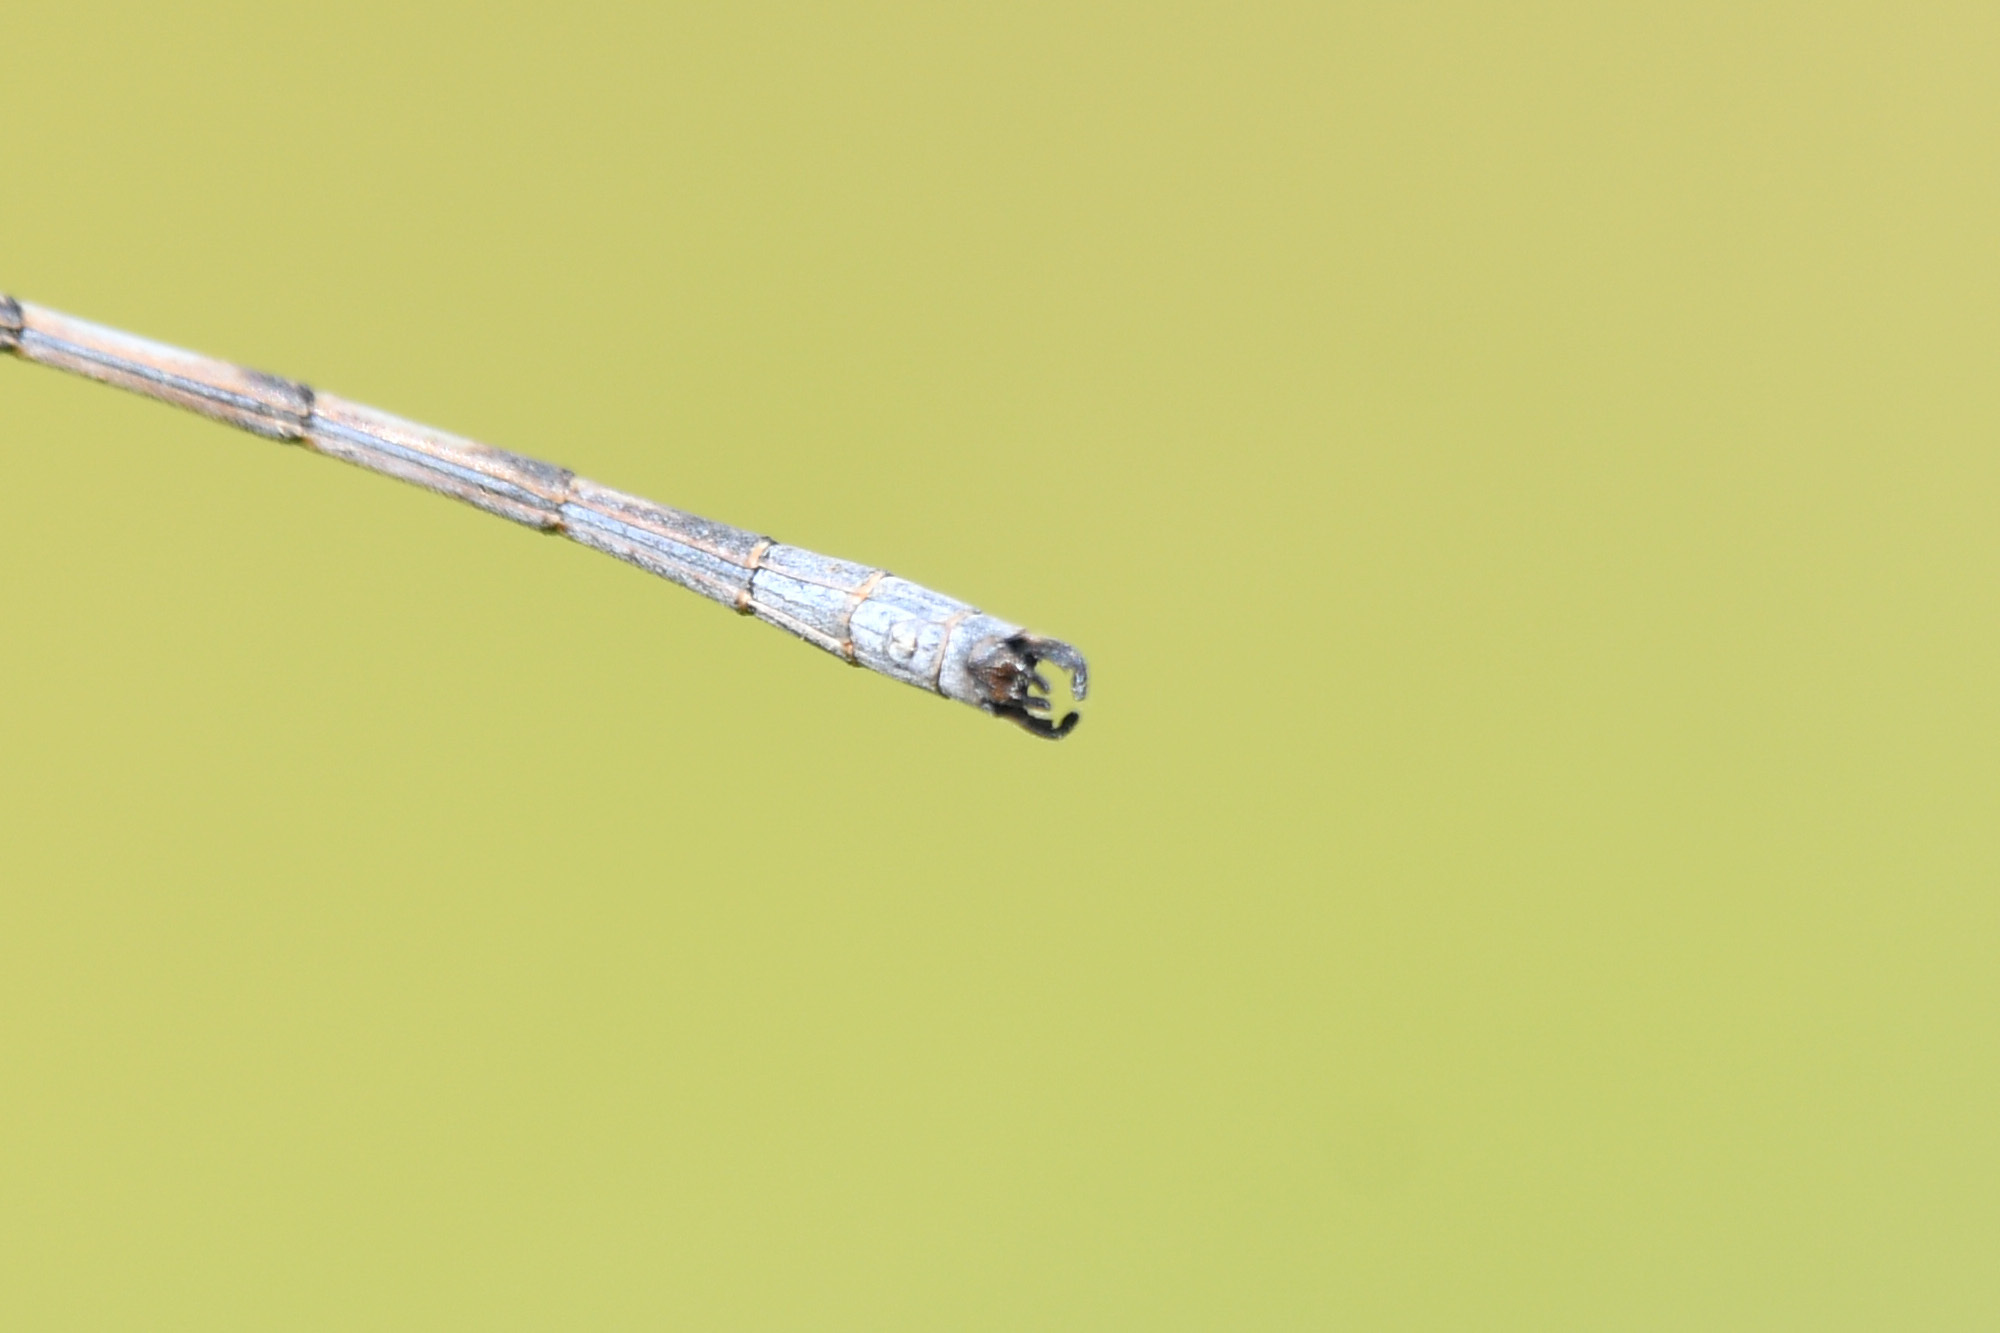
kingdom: Animalia
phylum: Arthropoda
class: Insecta
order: Odonata
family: Lestidae
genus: Lestes
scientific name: Lestes disjunctus
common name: Northern spreadwing
